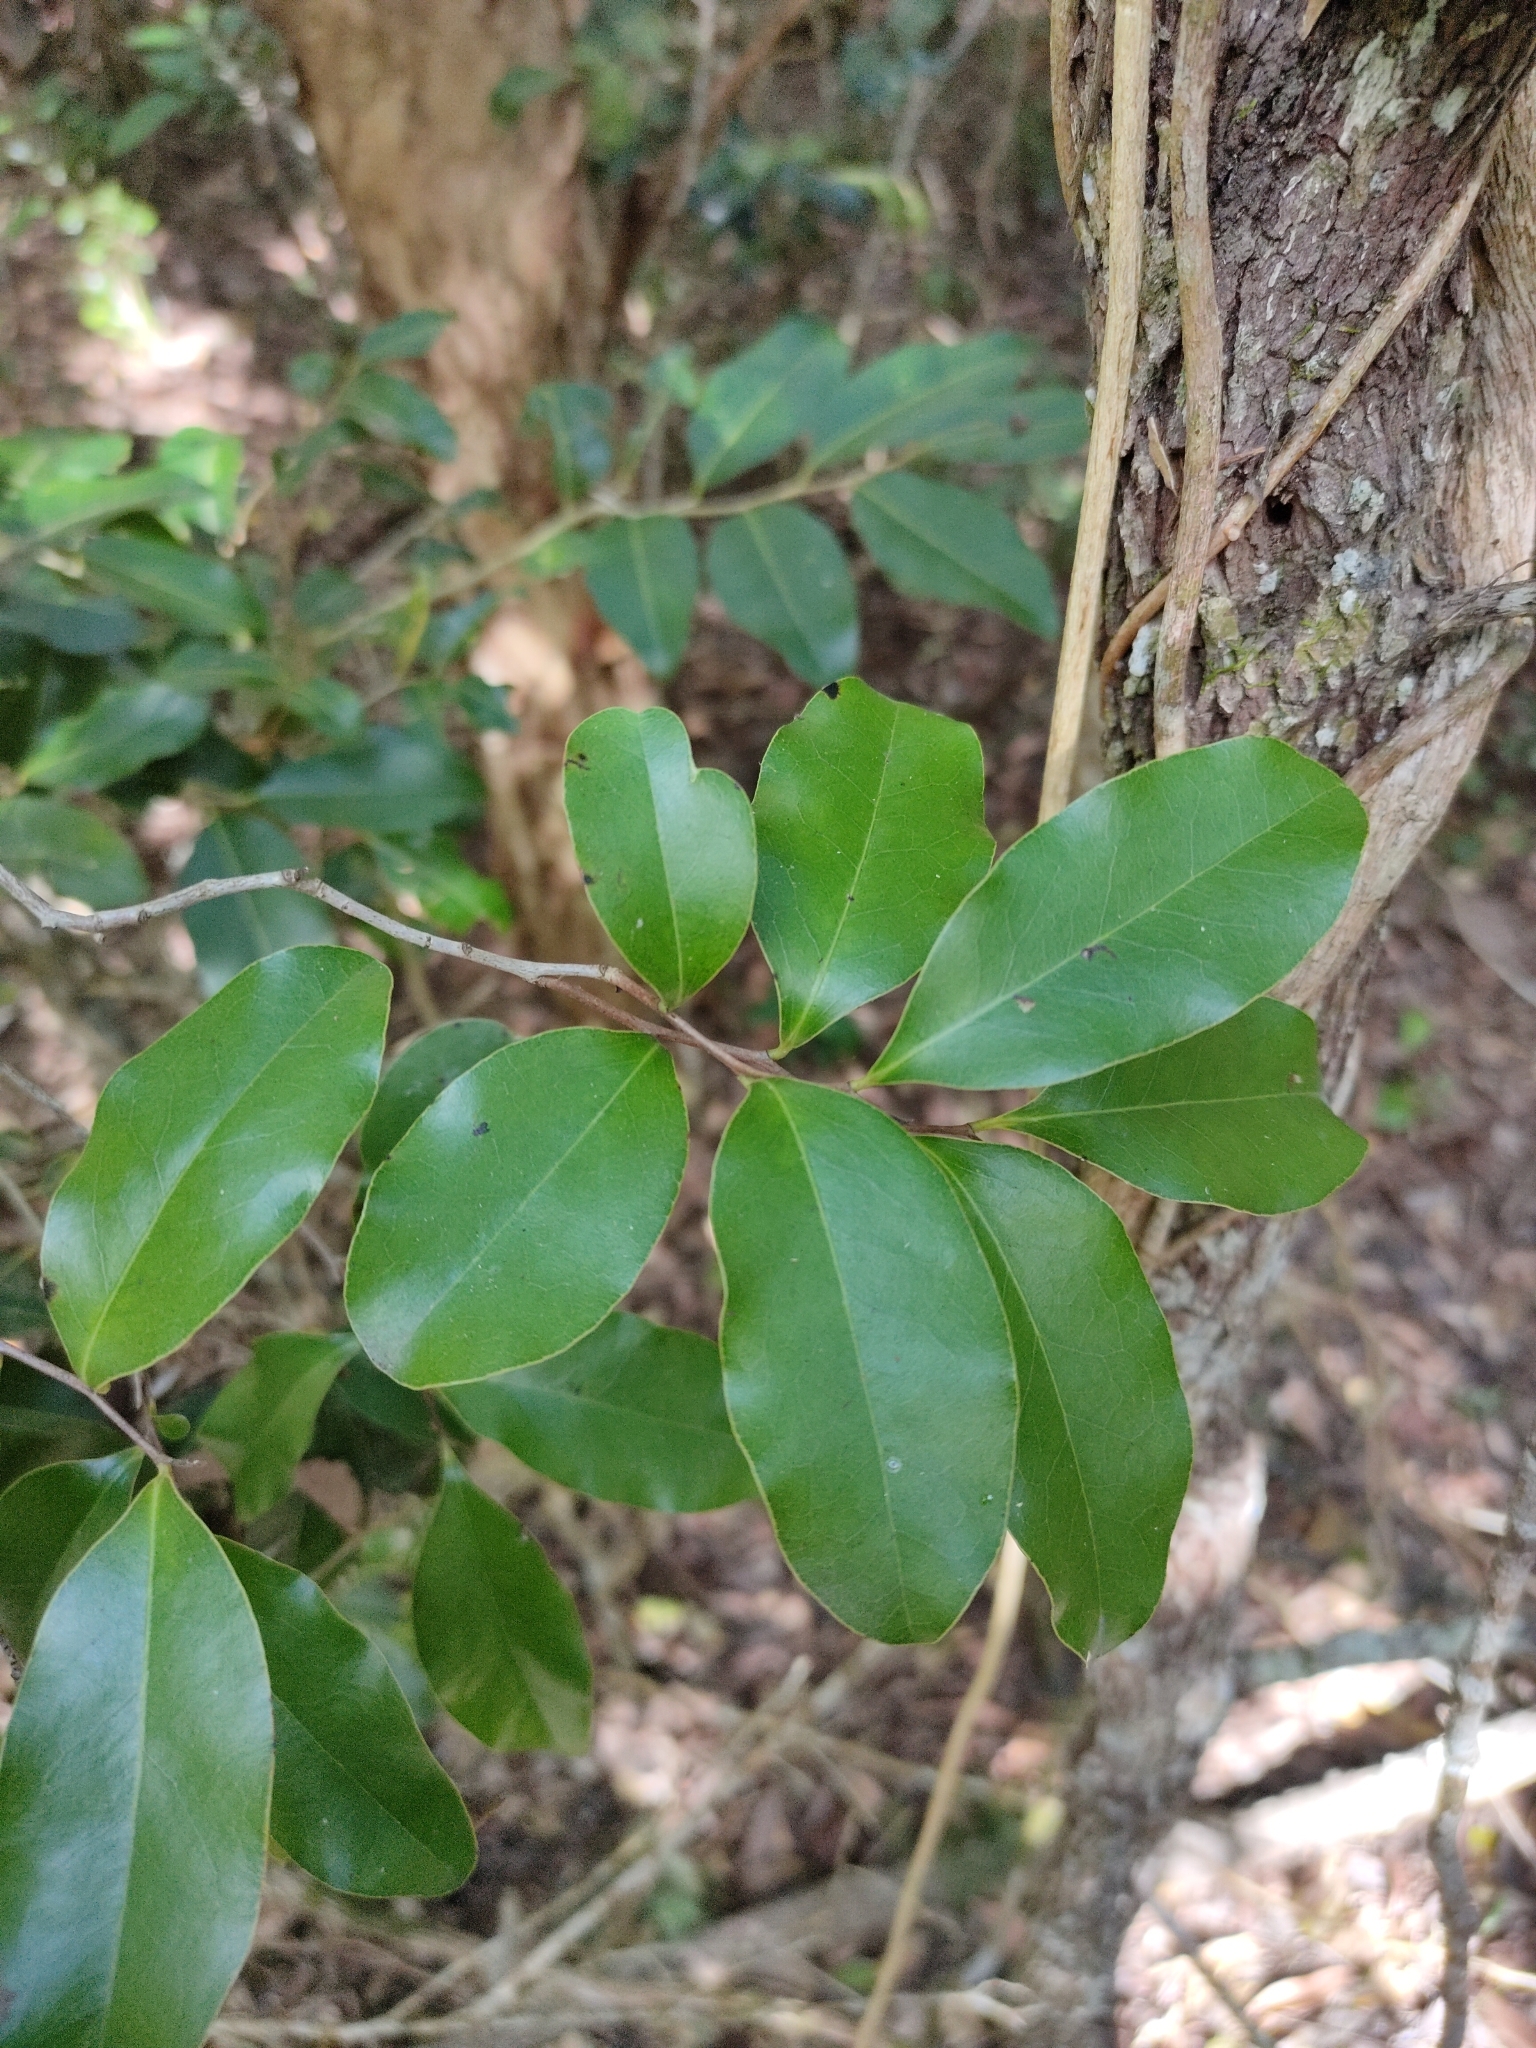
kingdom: Plantae
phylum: Tracheophyta
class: Magnoliopsida
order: Ericales
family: Ebenaceae
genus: Diospyros
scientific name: Diospyros geminata
